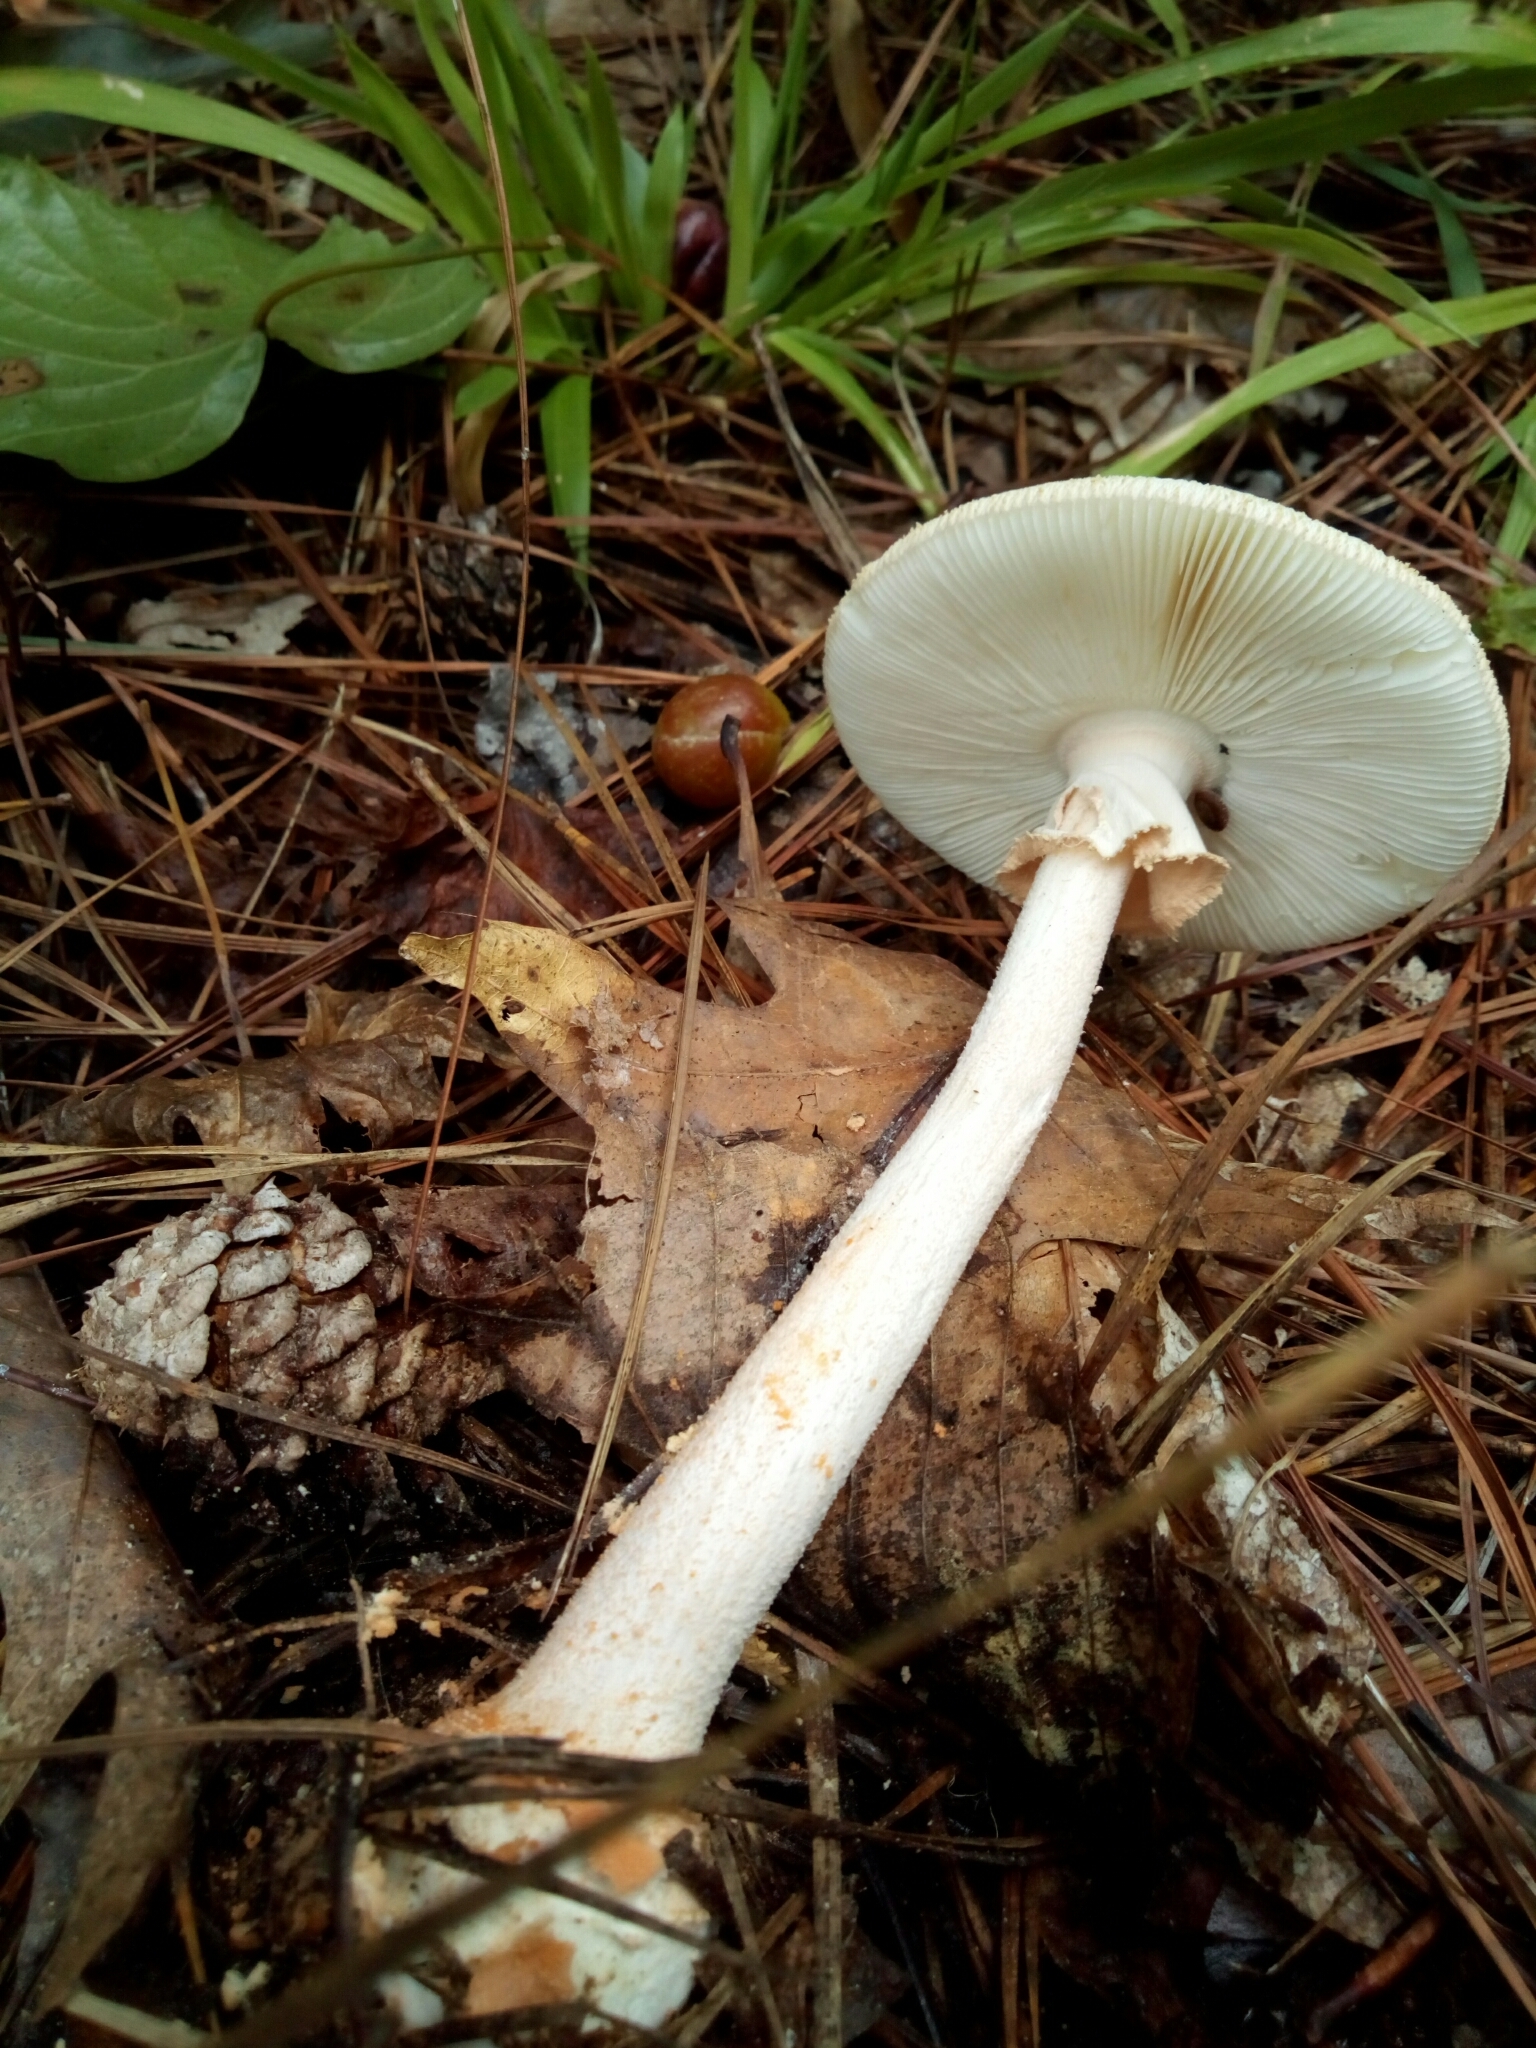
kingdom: Fungi
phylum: Basidiomycota
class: Agaricomycetes
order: Agaricales
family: Amanitaceae
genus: Amanita
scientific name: Amanita roseotincta
